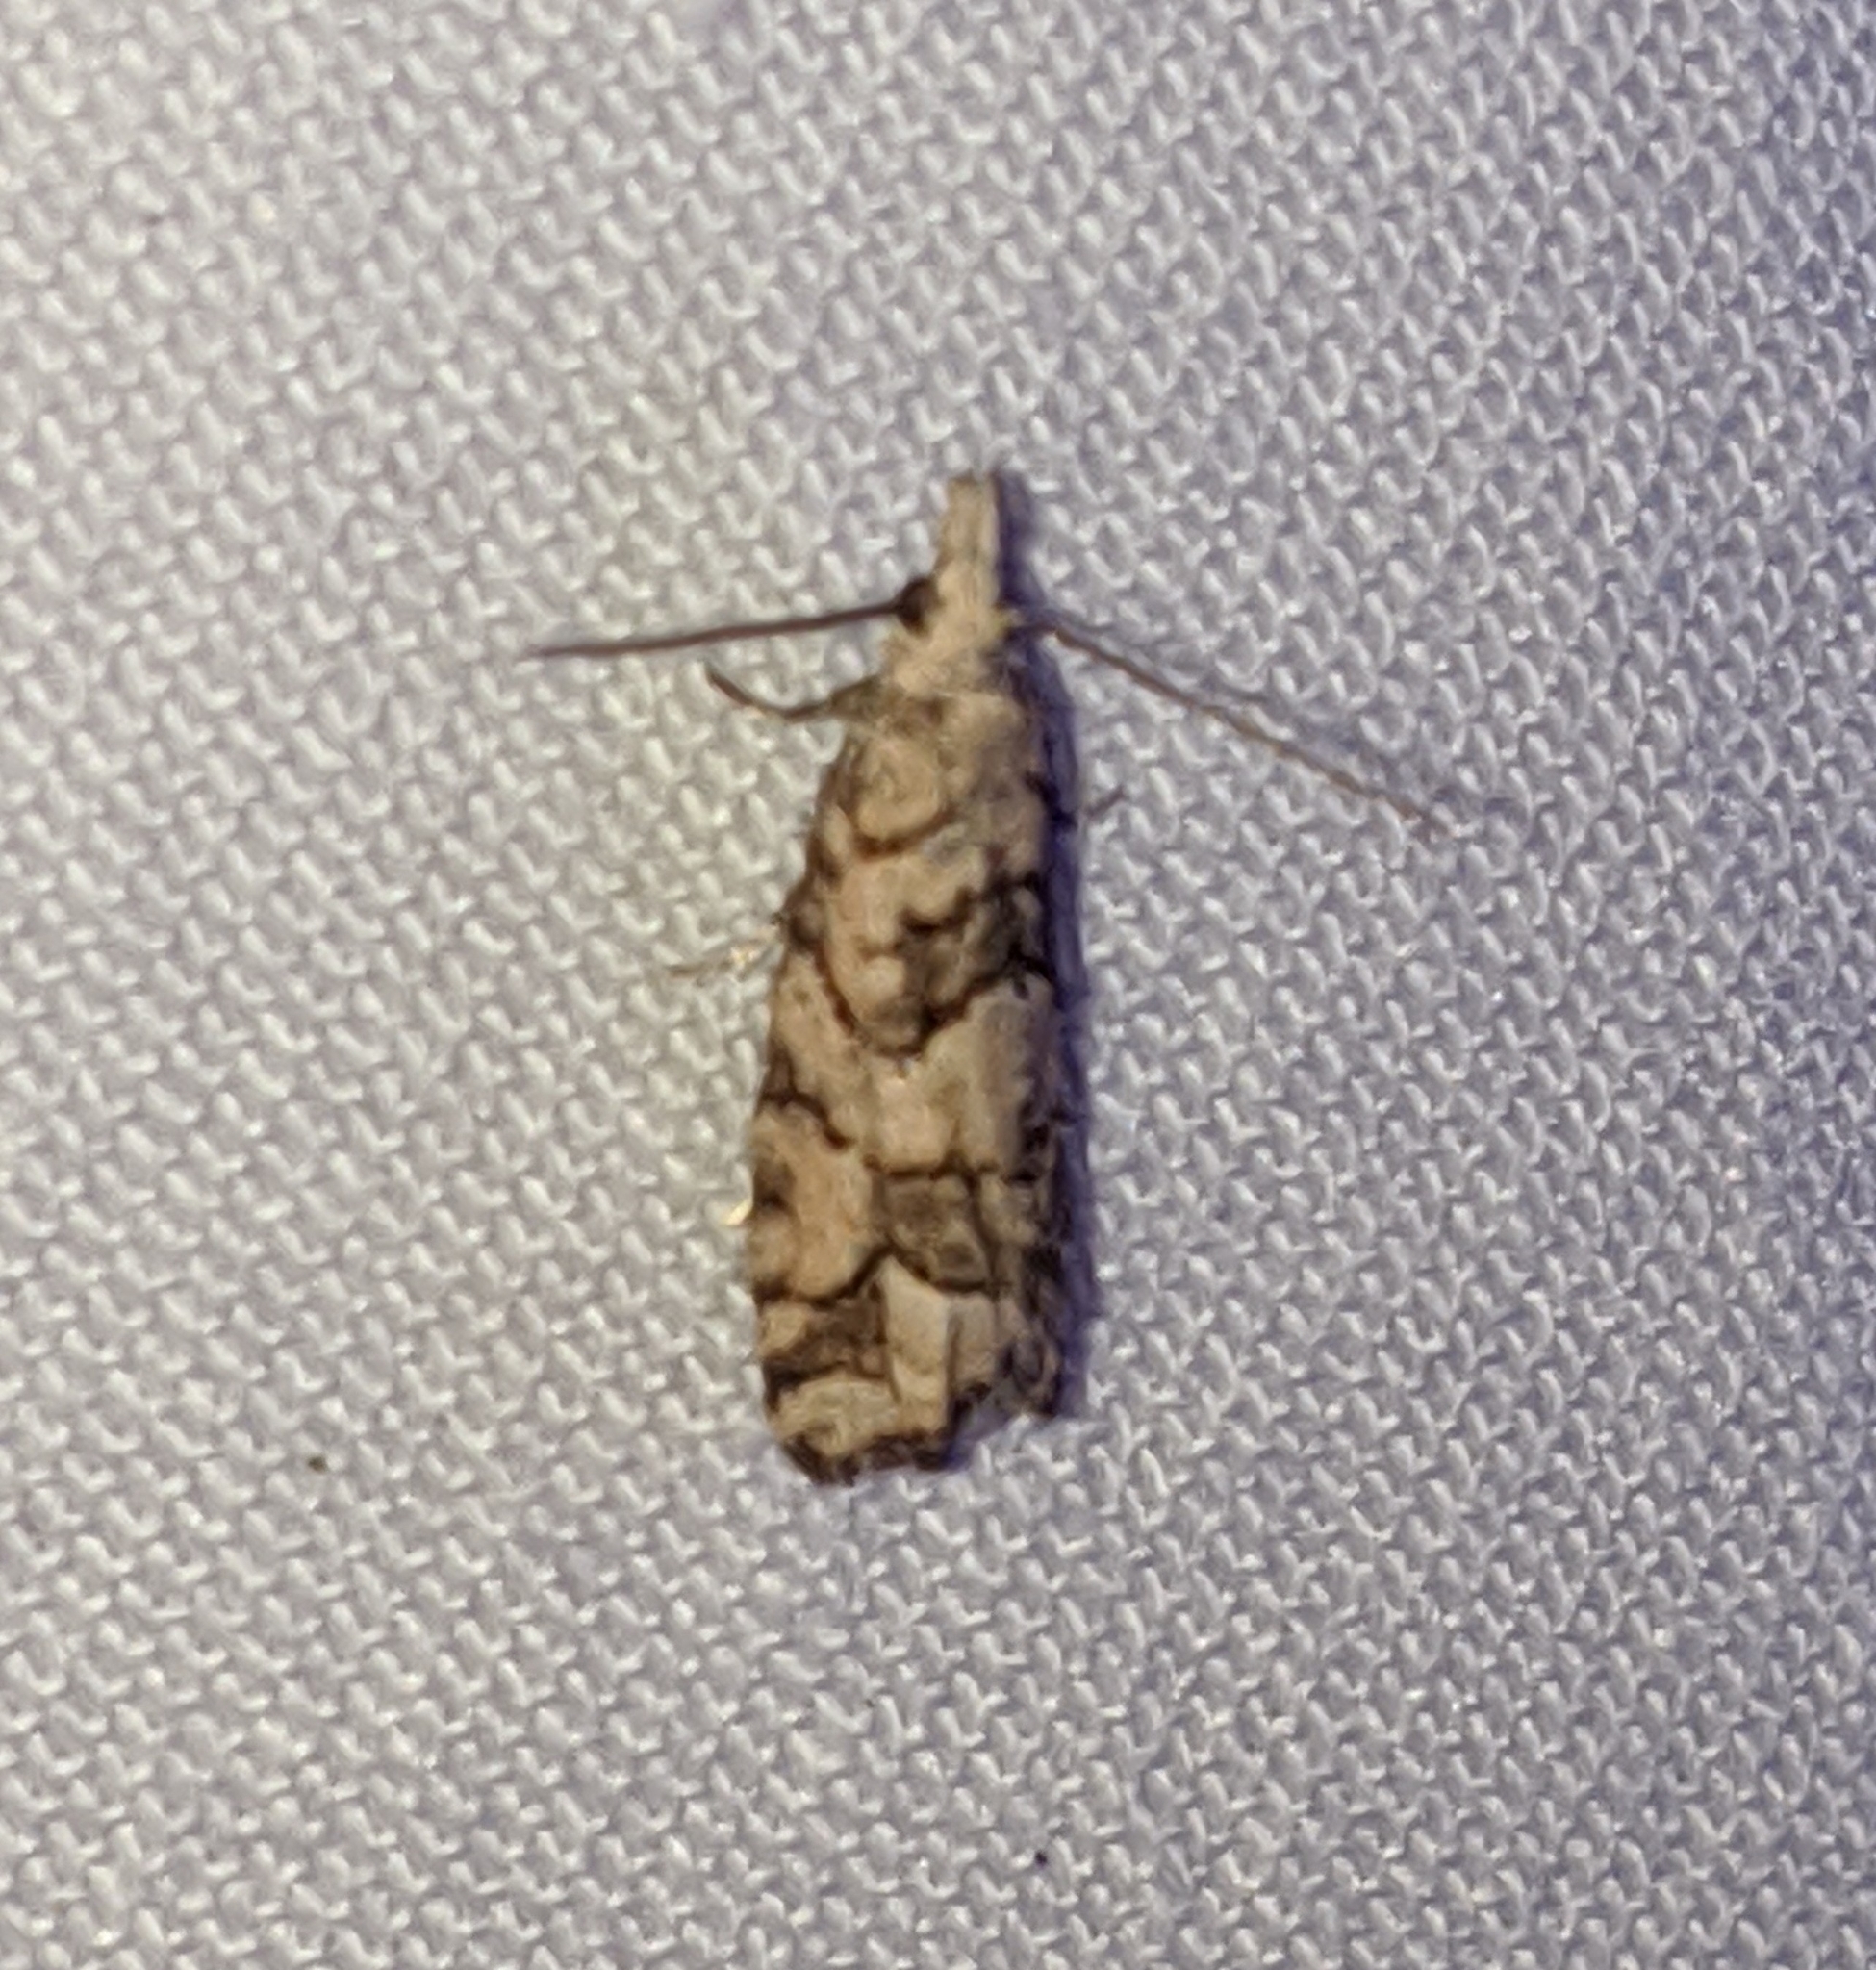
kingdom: Animalia
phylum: Arthropoda
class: Insecta
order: Lepidoptera
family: Tortricidae
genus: Epinotia
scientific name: Epinotia subviridis
